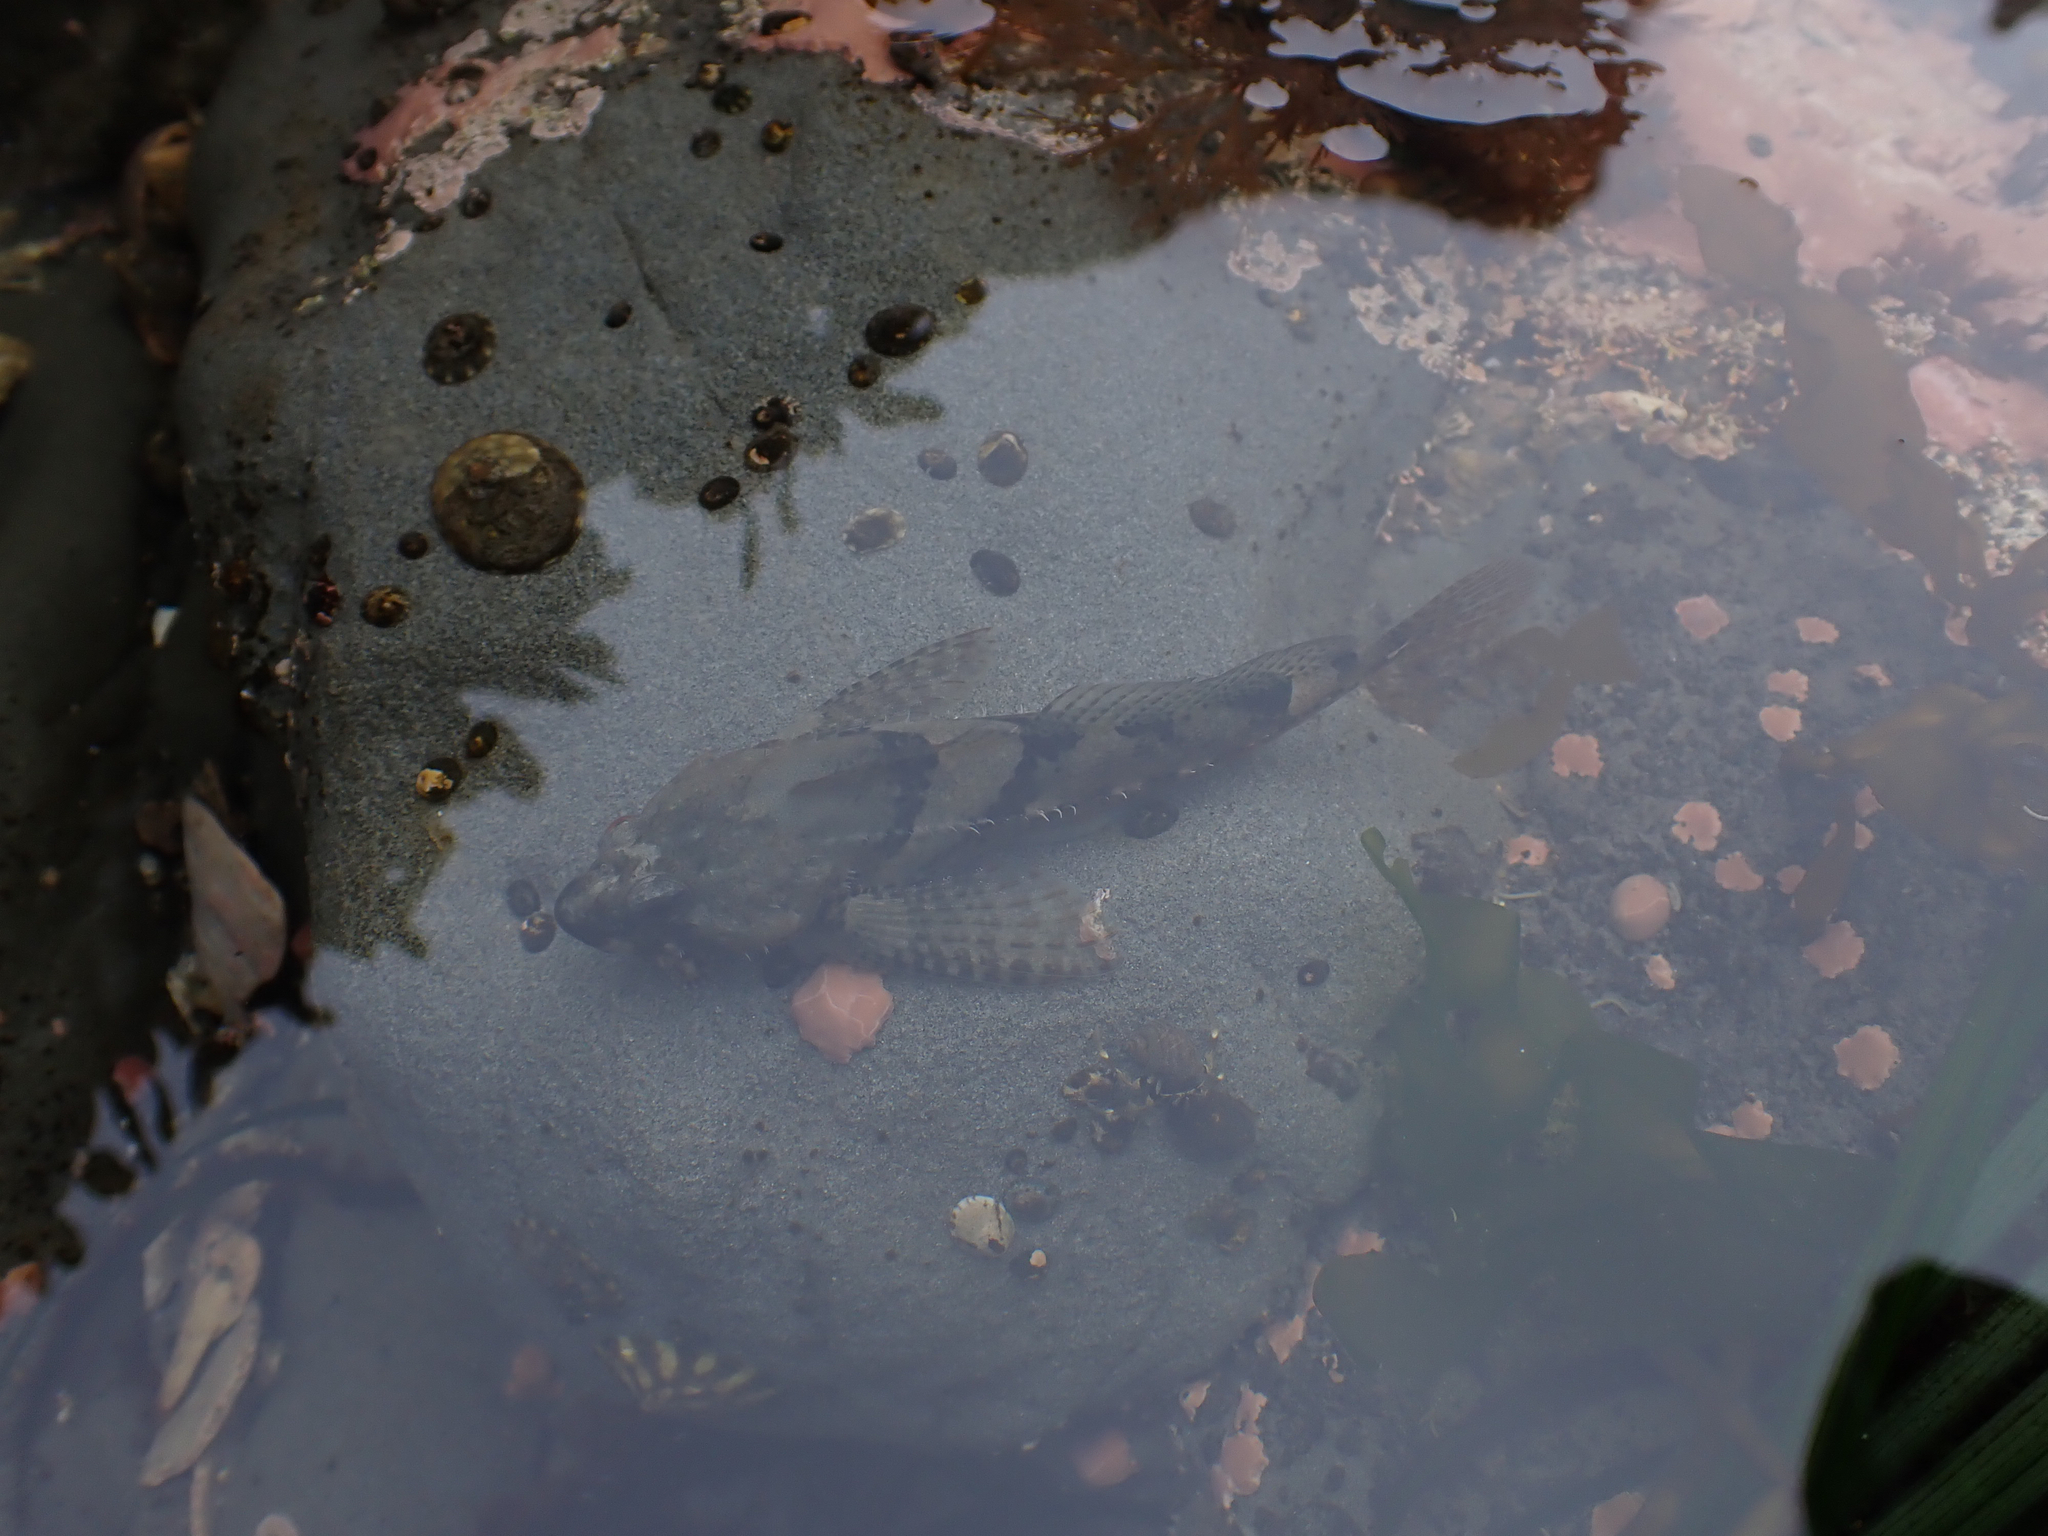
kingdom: Animalia
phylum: Chordata
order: Scorpaeniformes
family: Cottidae
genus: Oligocottus
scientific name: Oligocottus maculosus
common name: Tidepool sculpin
